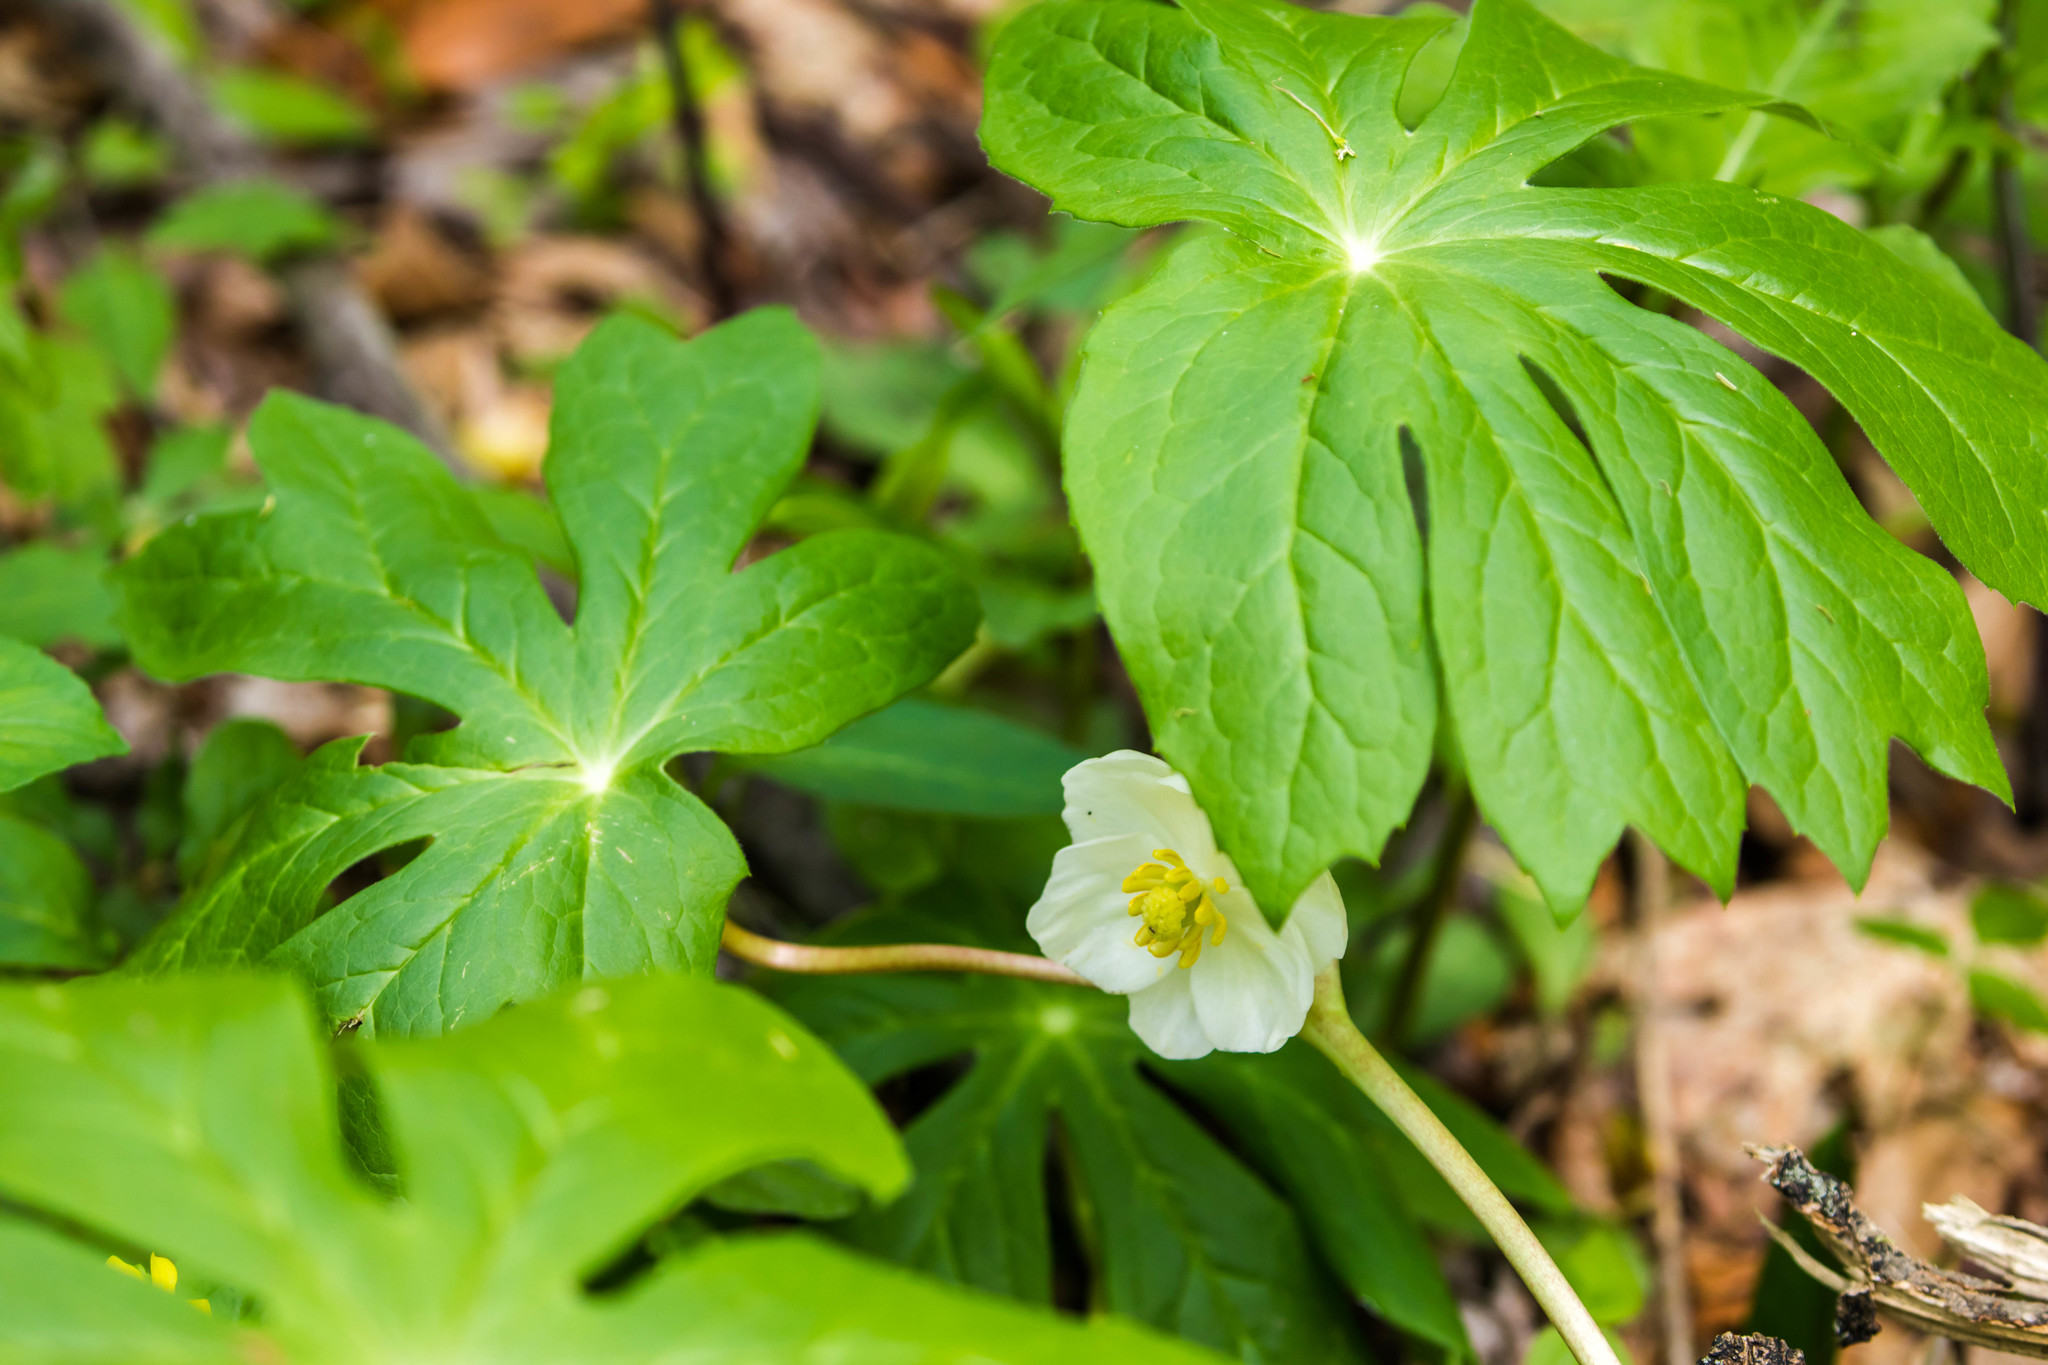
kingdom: Plantae
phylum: Tracheophyta
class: Magnoliopsida
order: Ranunculales
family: Berberidaceae
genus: Podophyllum
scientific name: Podophyllum peltatum
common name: Wild mandrake
